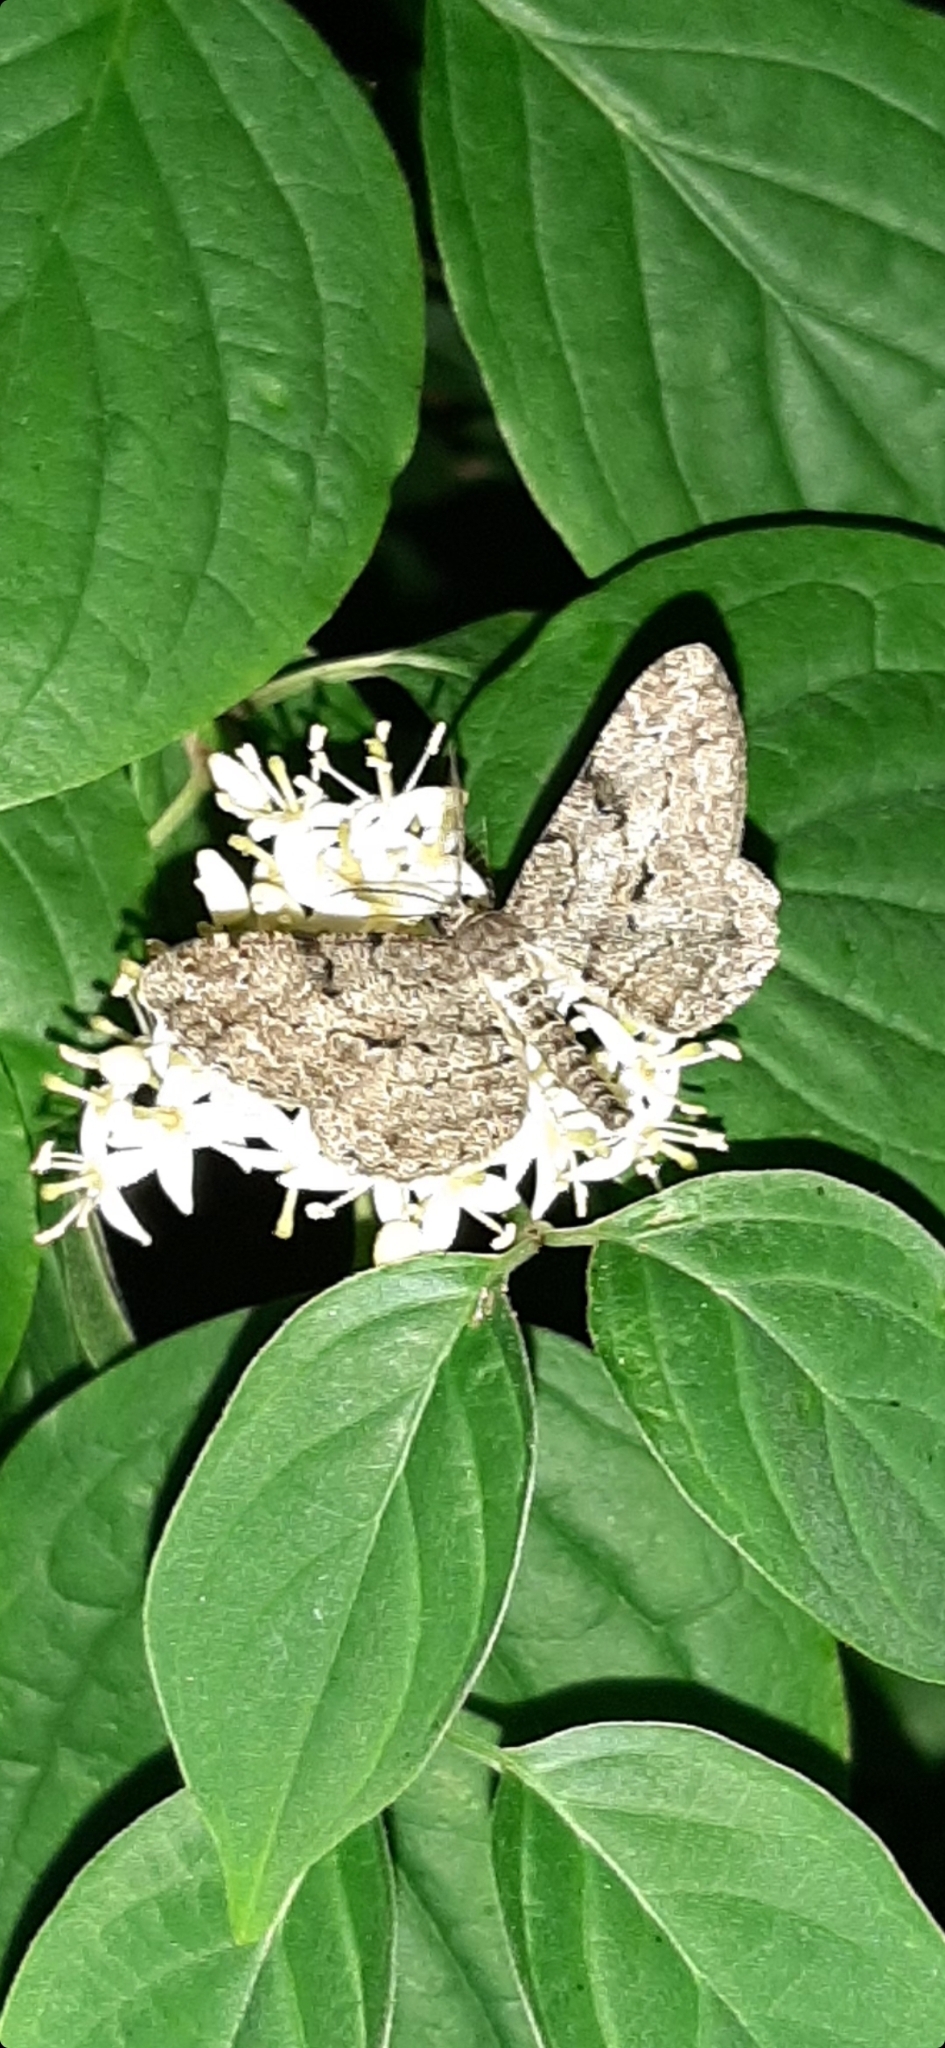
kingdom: Animalia
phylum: Arthropoda
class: Insecta
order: Lepidoptera
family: Geometridae
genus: Peribatodes
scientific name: Peribatodes rhomboidaria
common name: Willow beauty
